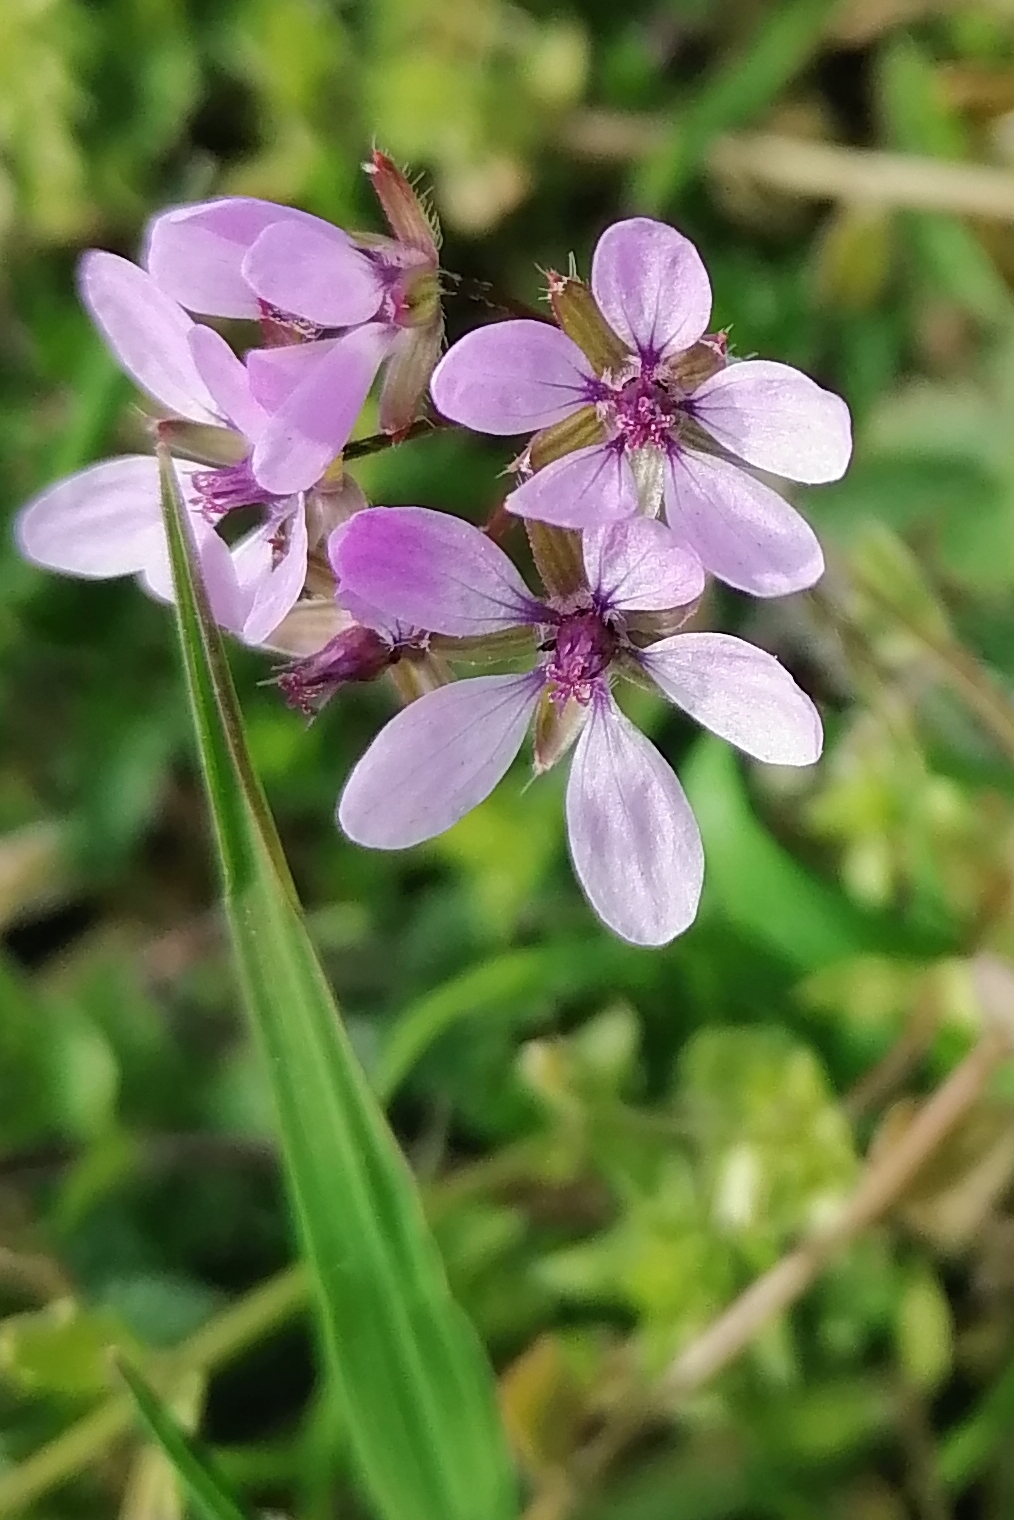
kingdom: Plantae
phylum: Tracheophyta
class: Magnoliopsida
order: Geraniales
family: Geraniaceae
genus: Erodium
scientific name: Erodium cicutarium
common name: Common stork's-bill
